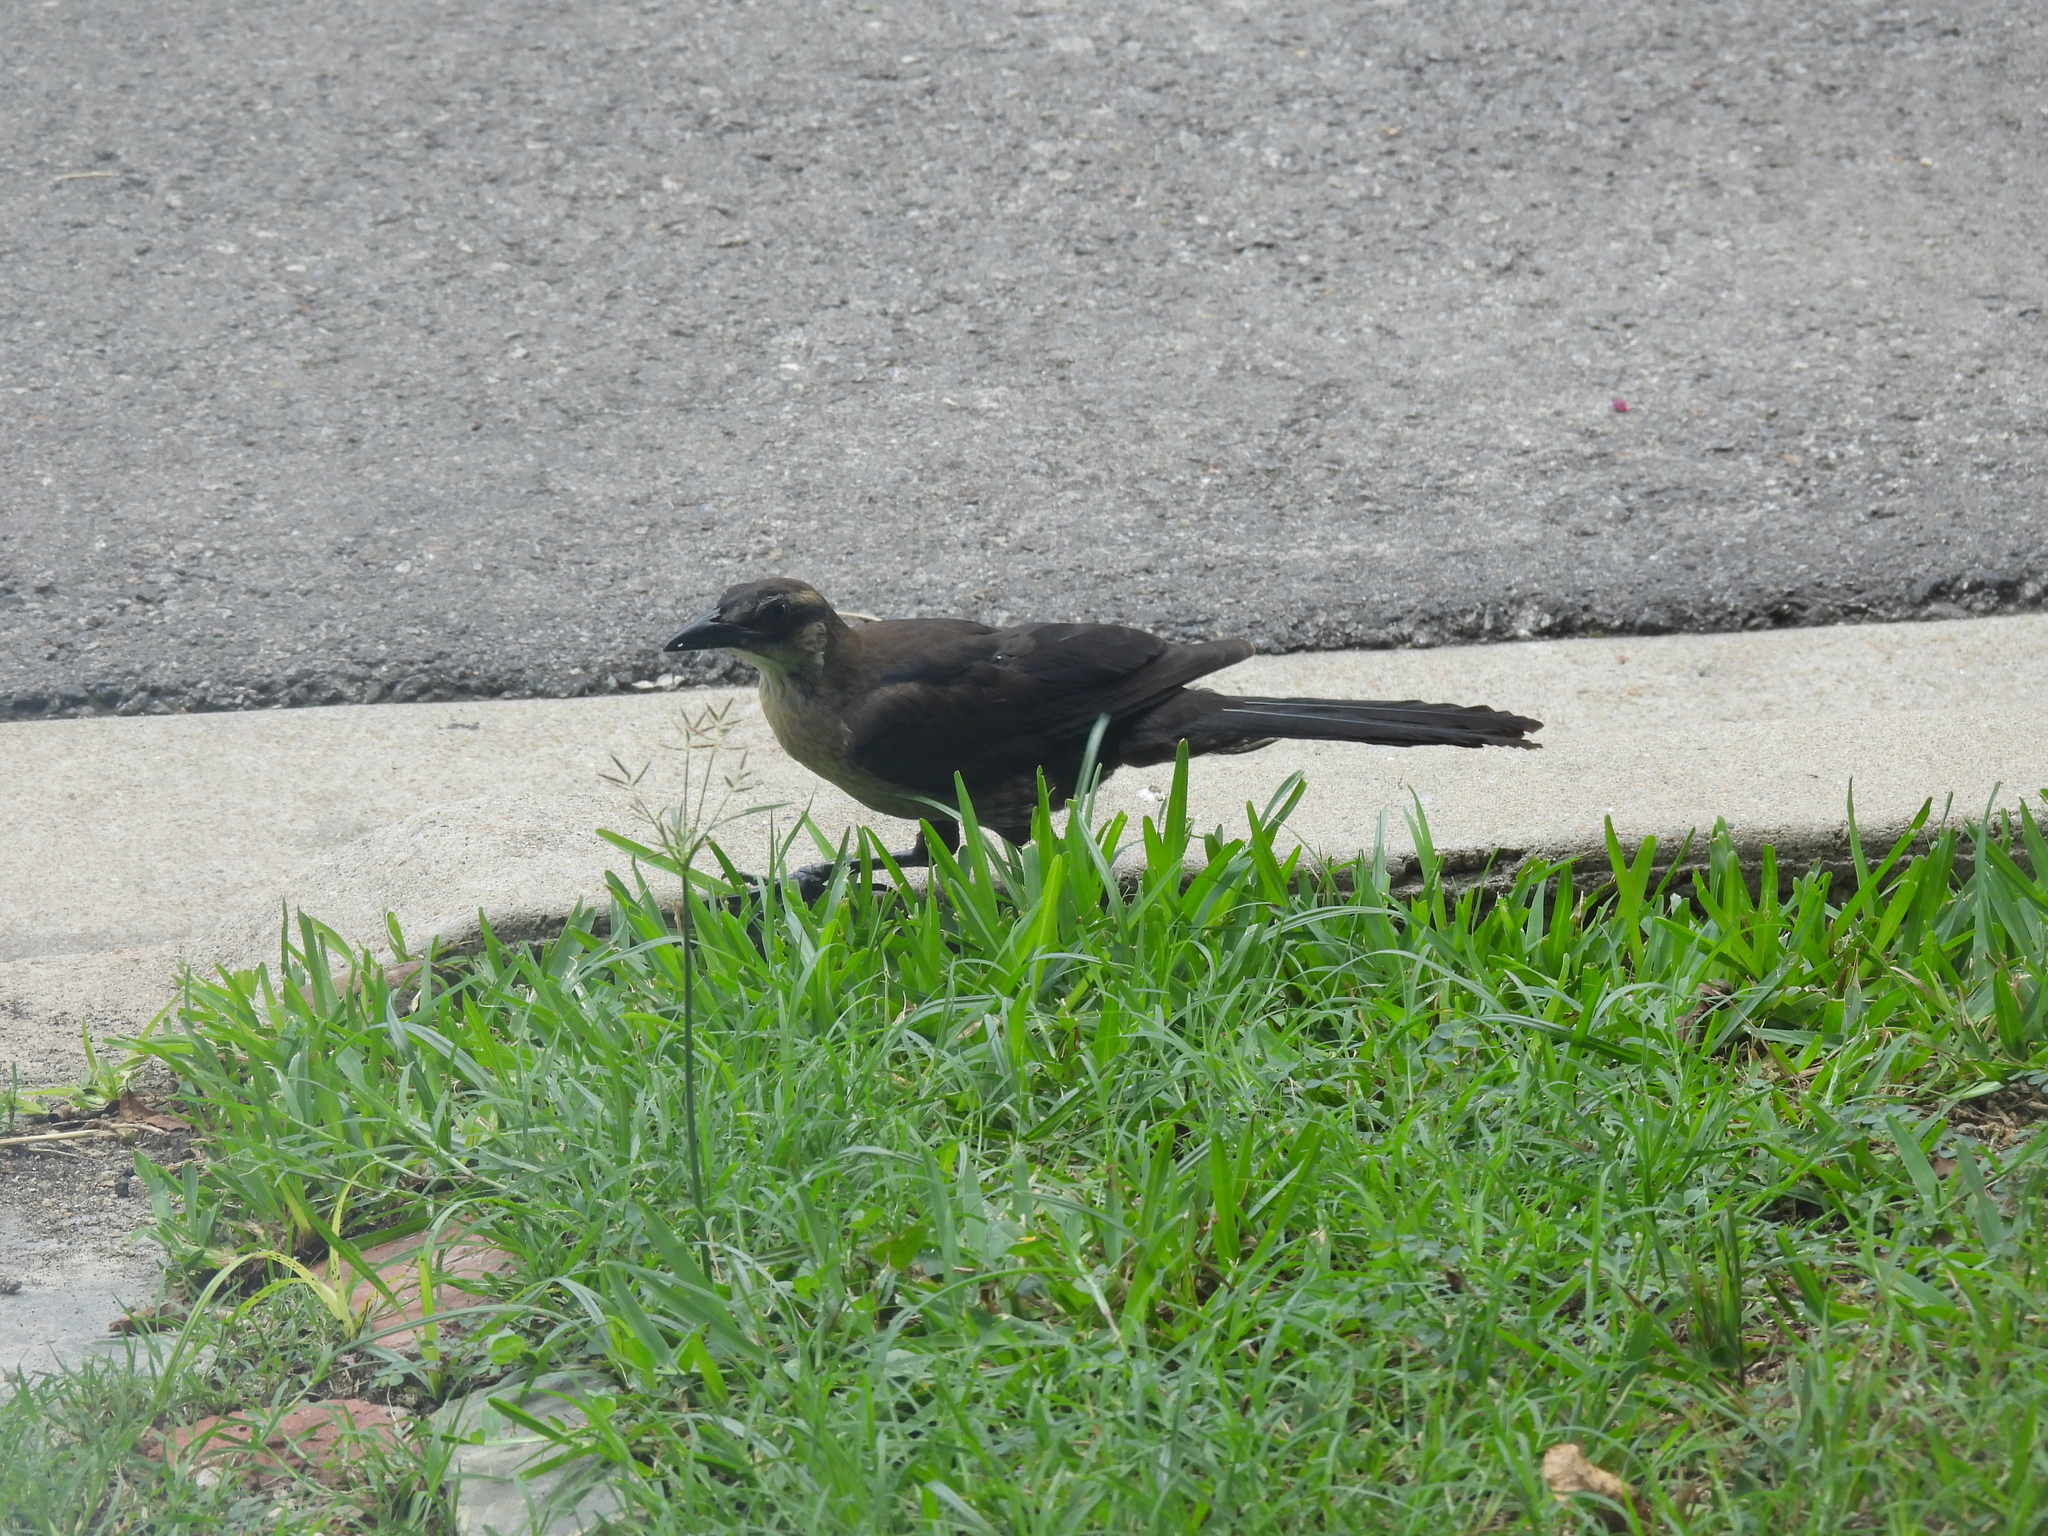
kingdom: Animalia
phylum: Chordata
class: Aves
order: Passeriformes
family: Icteridae
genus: Quiscalus
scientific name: Quiscalus mexicanus
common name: Great-tailed grackle
